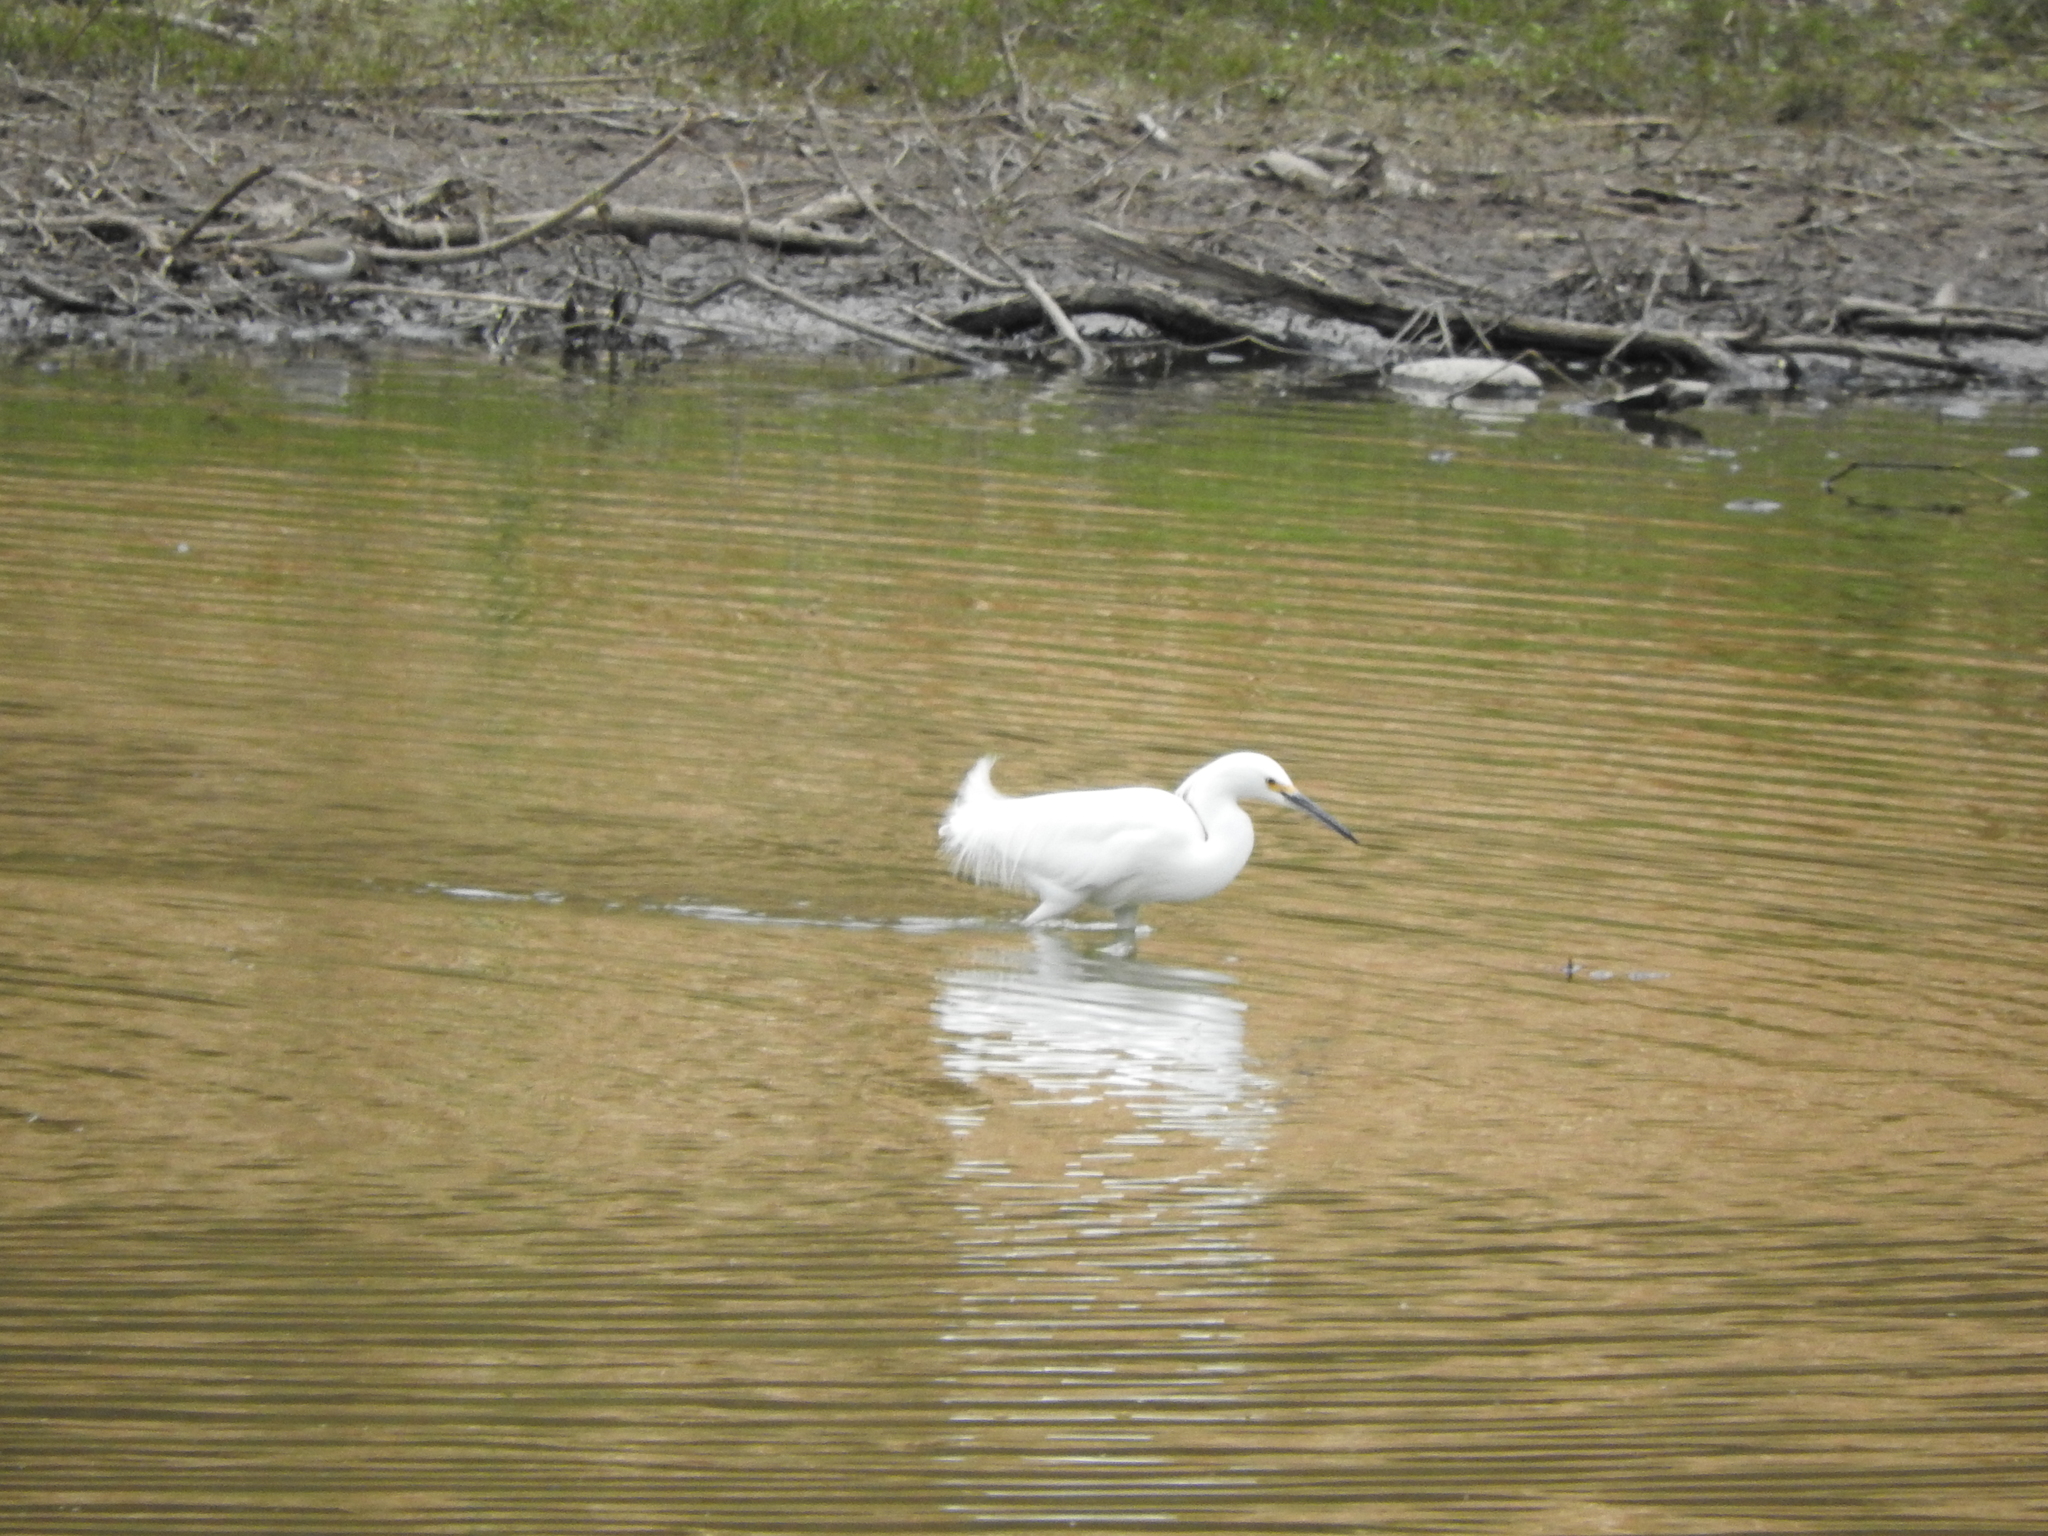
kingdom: Animalia
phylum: Chordata
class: Aves
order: Pelecaniformes
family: Ardeidae
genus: Egretta
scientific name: Egretta thula
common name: Snowy egret
